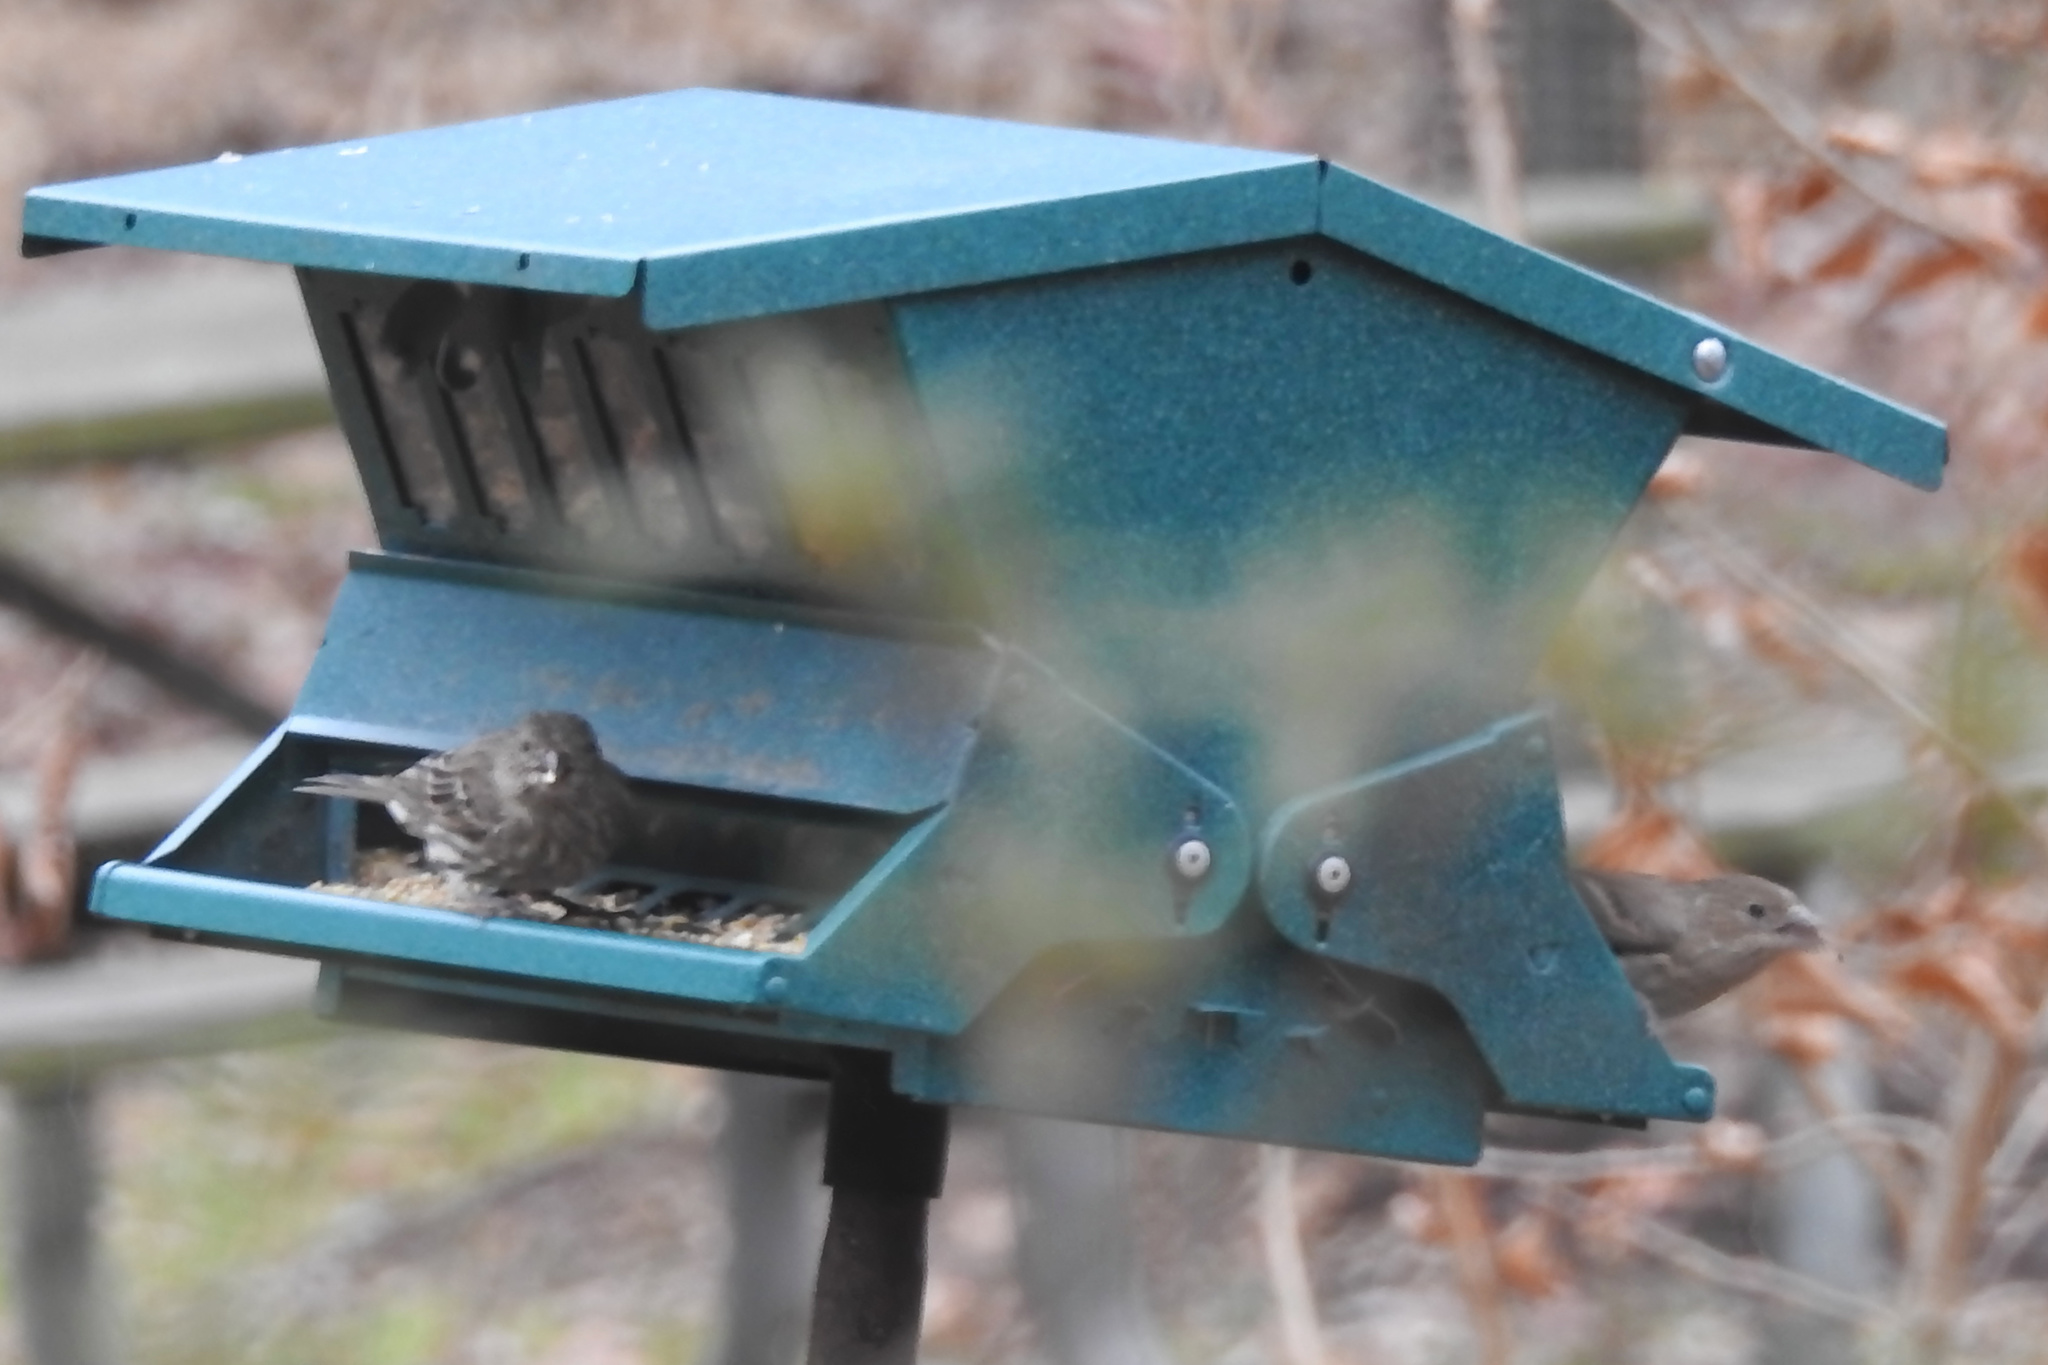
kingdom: Animalia
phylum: Chordata
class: Aves
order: Passeriformes
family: Fringillidae
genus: Haemorhous
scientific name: Haemorhous mexicanus
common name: House finch
